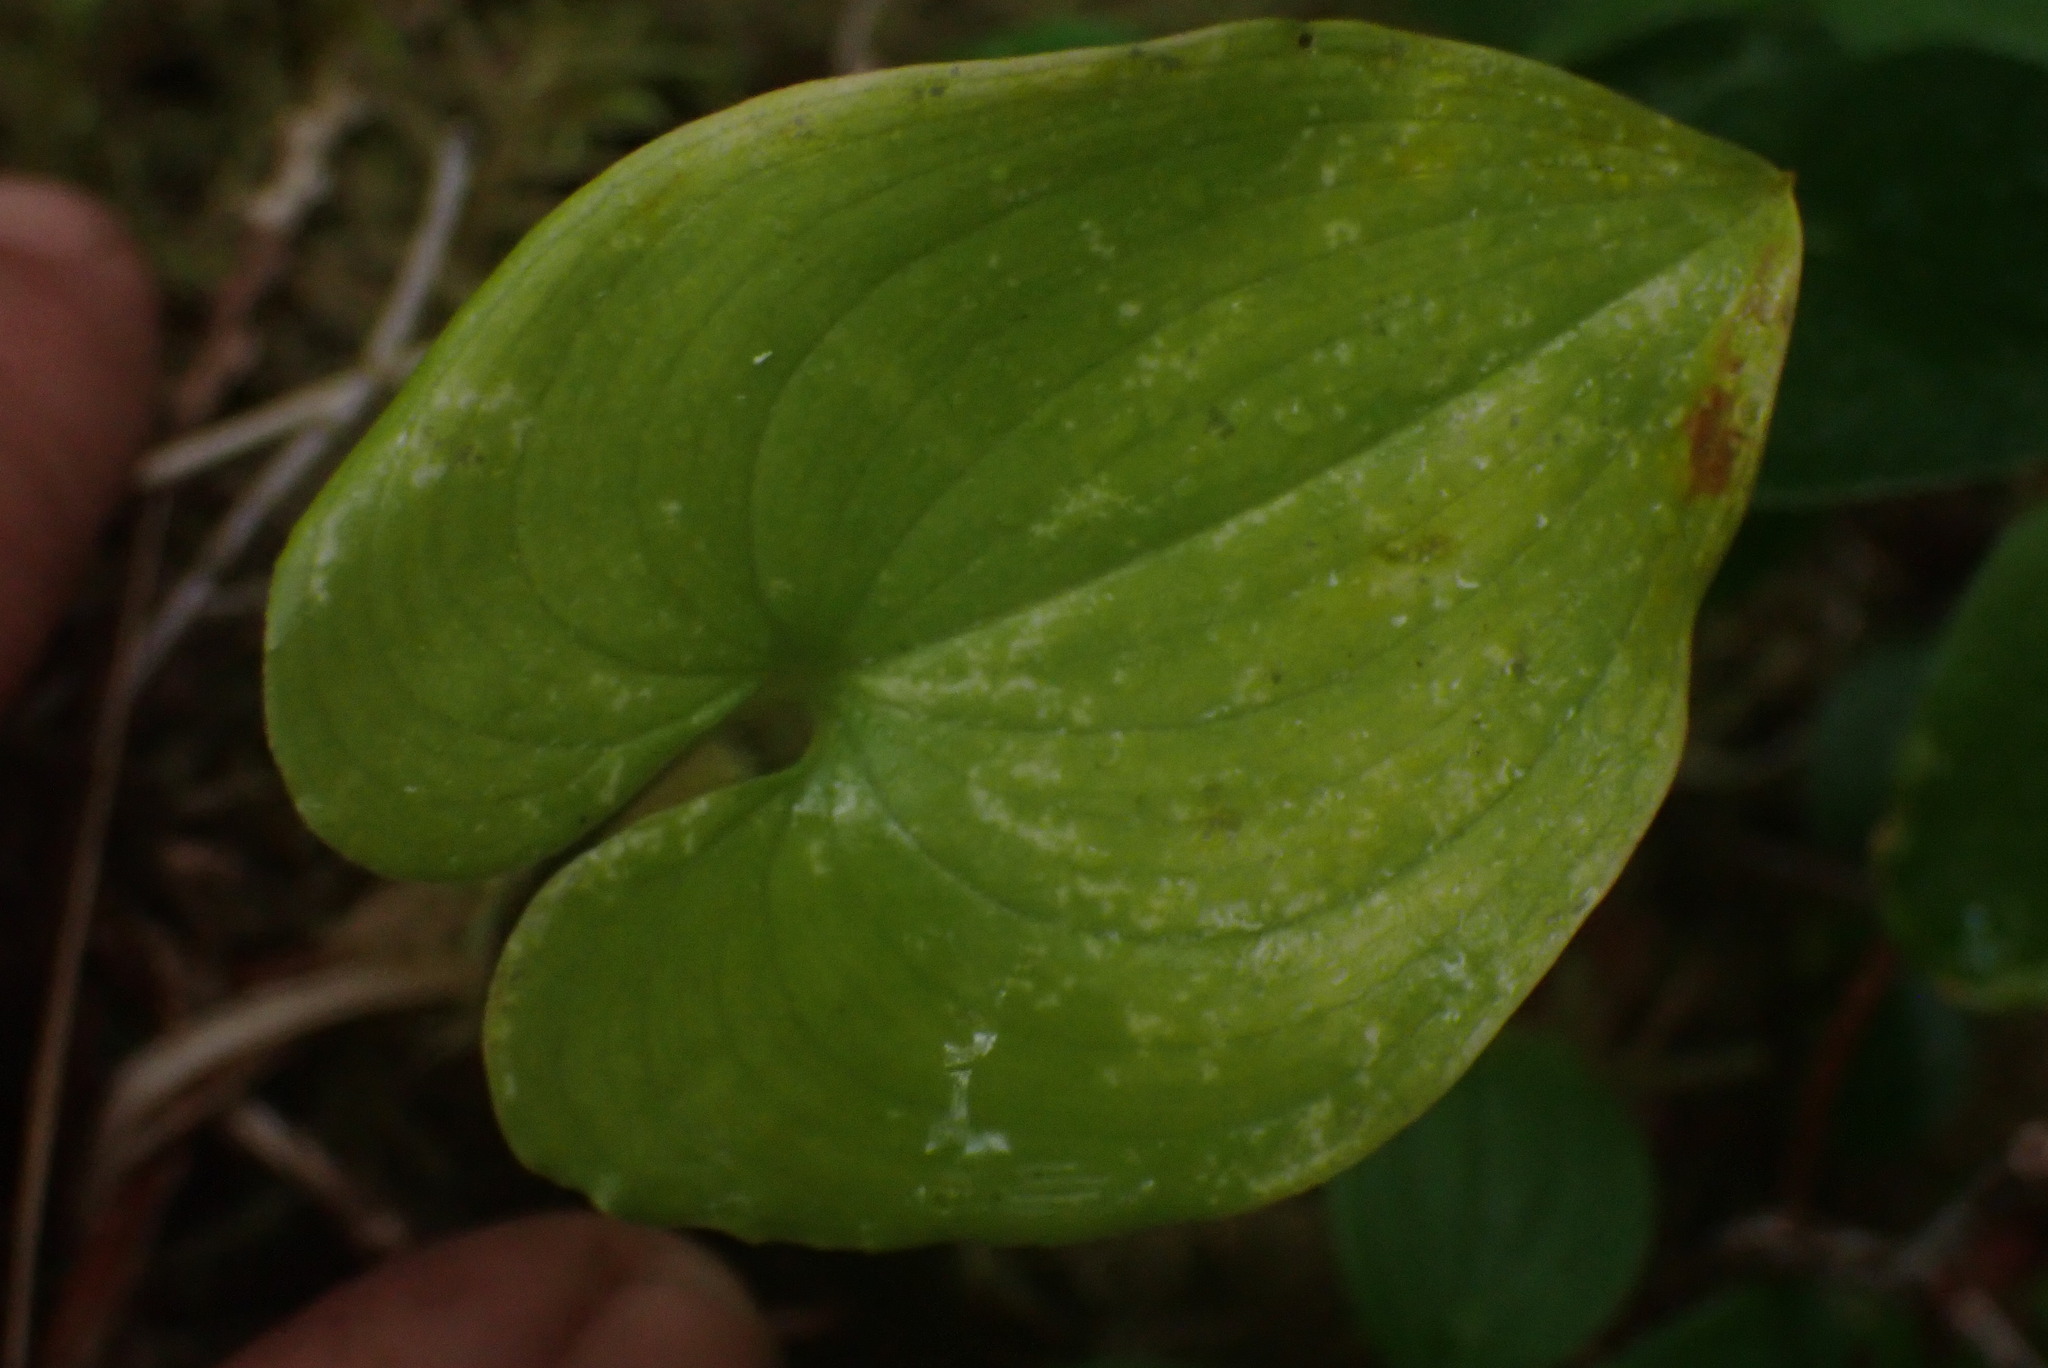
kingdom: Plantae
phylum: Tracheophyta
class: Liliopsida
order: Asparagales
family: Asparagaceae
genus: Maianthemum
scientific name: Maianthemum dilatatum
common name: False lily-of-the-valley
